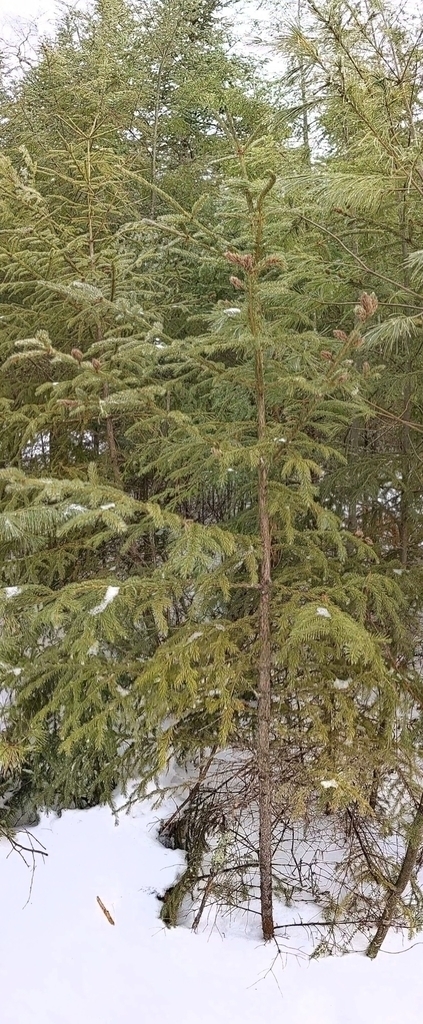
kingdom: Animalia
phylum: Arthropoda
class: Insecta
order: Hemiptera
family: Adelgidae
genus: Adelges
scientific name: Adelges abietis
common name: Eastern spruce gall adelgid
